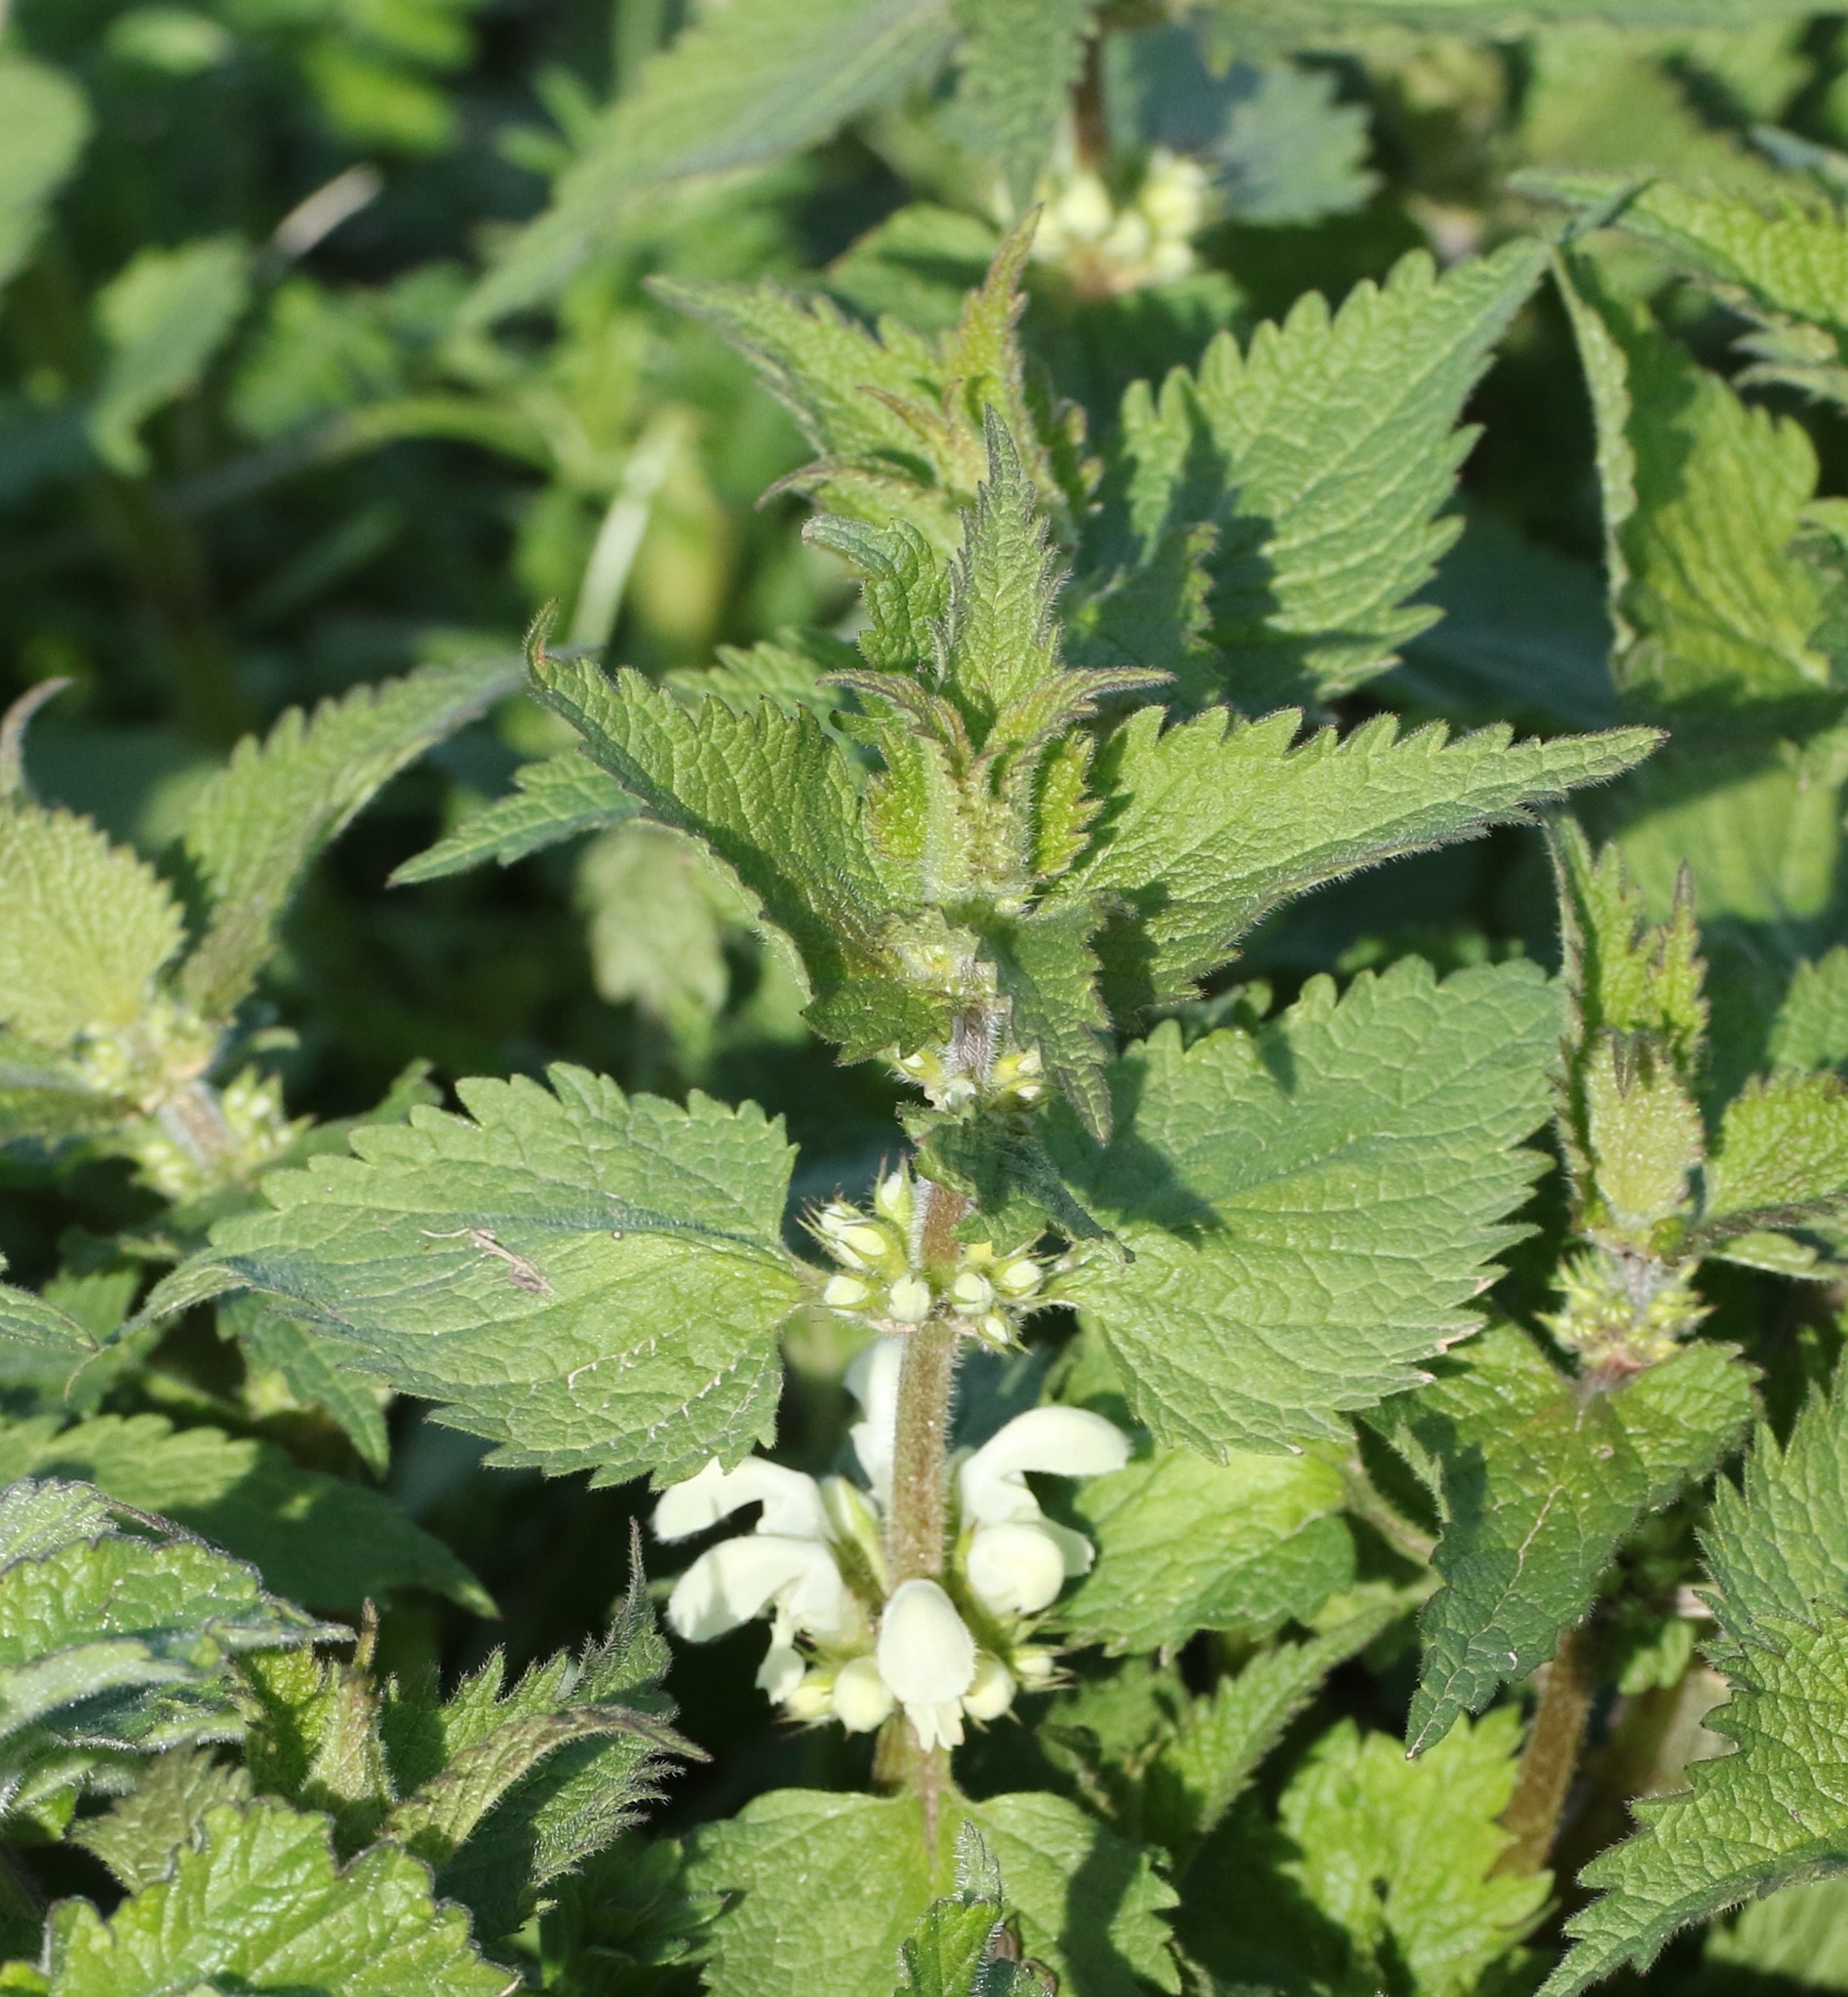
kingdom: Plantae
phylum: Tracheophyta
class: Magnoliopsida
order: Lamiales
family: Lamiaceae
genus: Lamium
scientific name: Lamium album
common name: White dead-nettle
